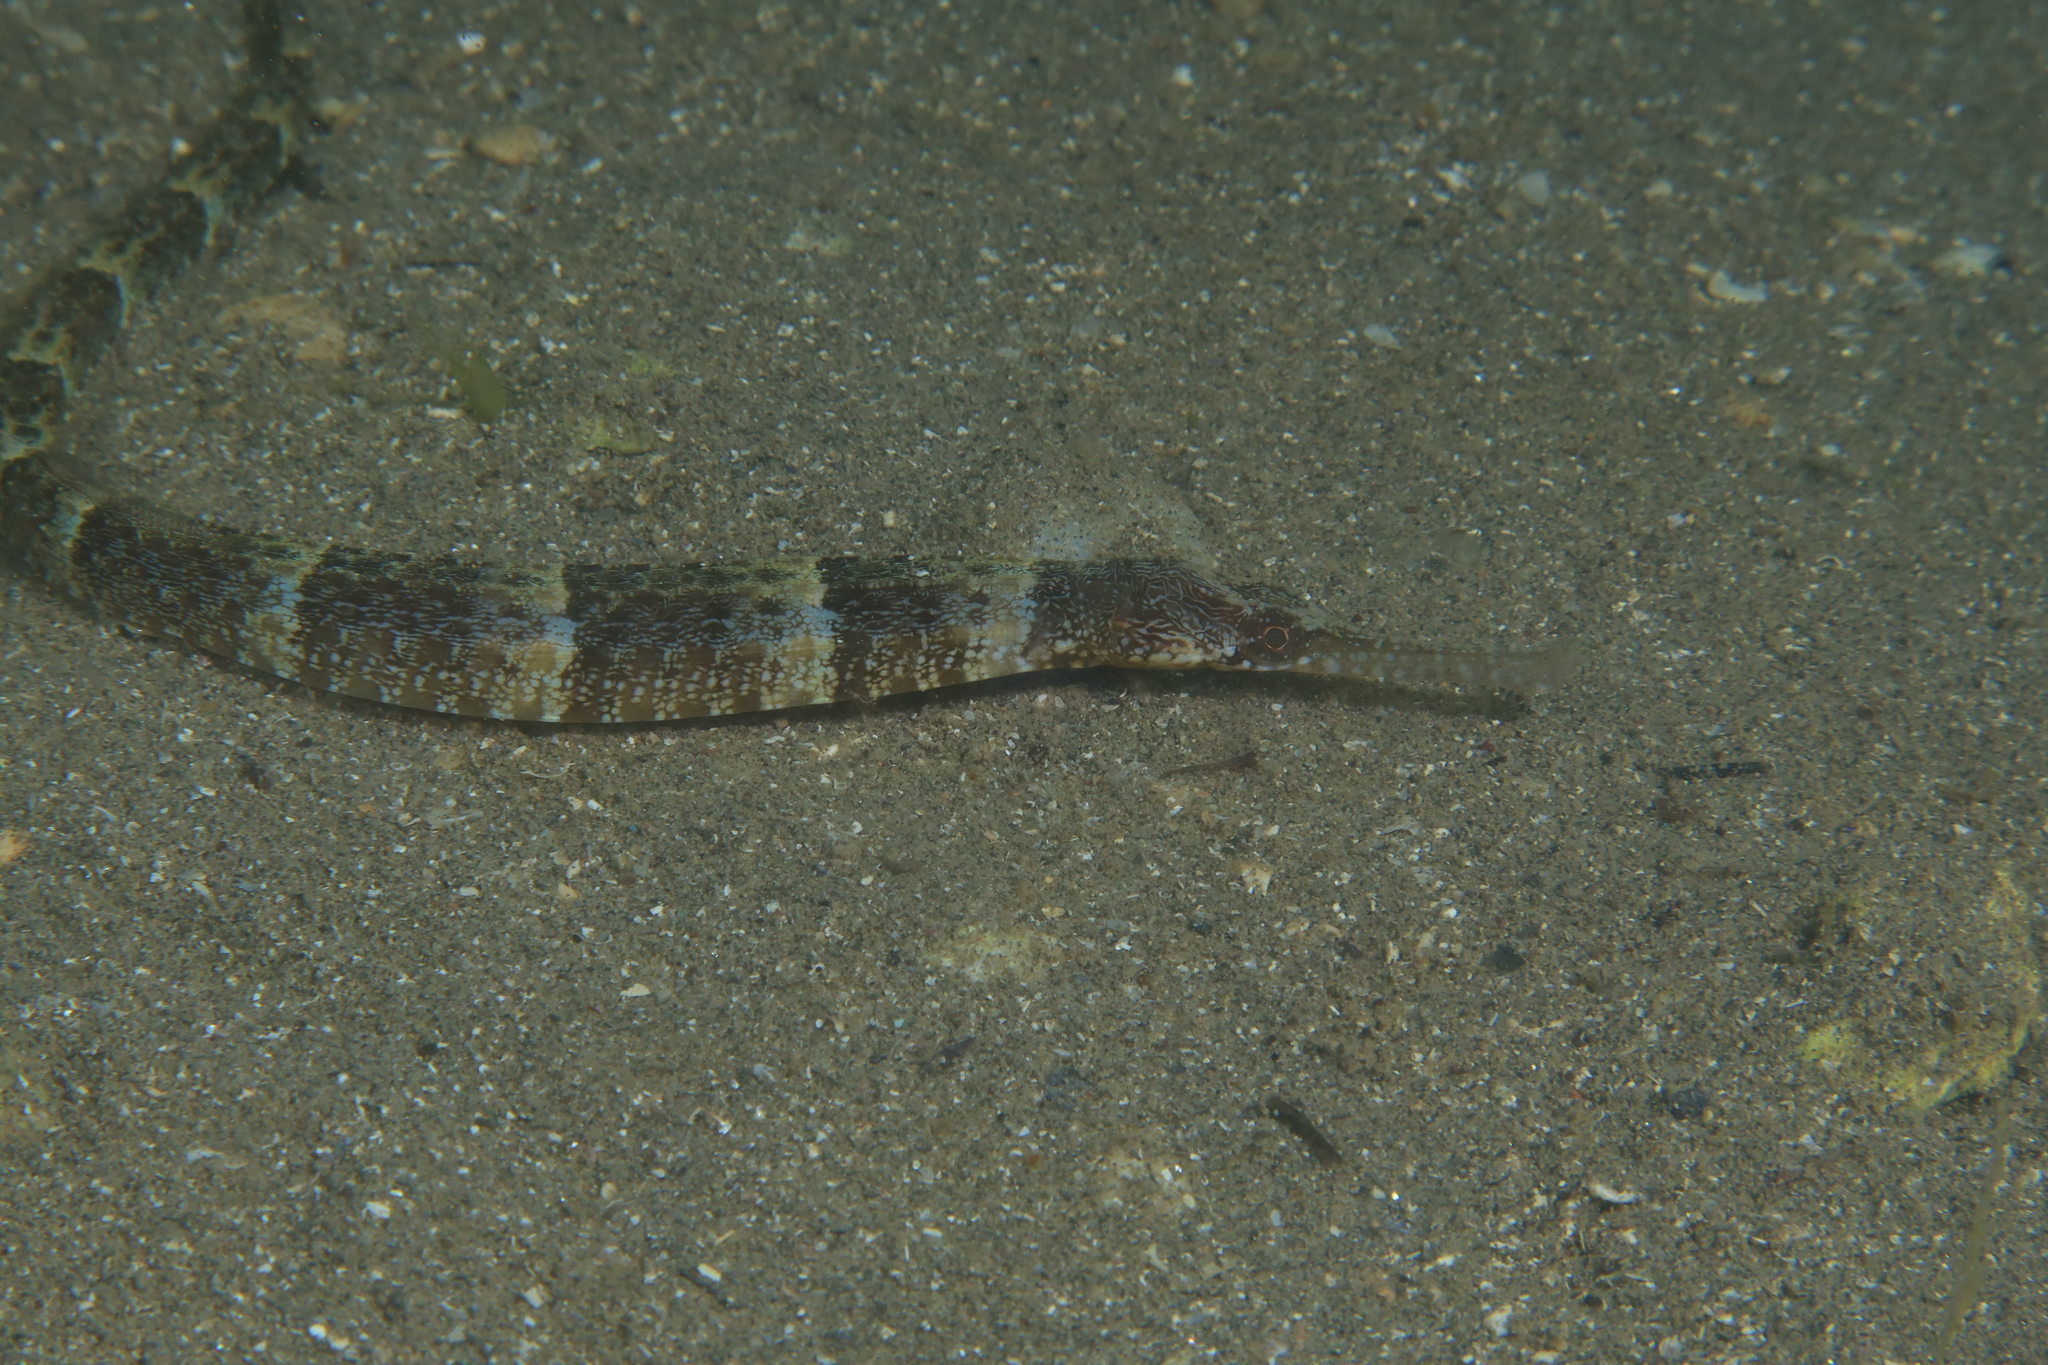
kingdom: Animalia
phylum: Chordata
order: Syngnathiformes
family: Syngnathidae
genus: Syngnathus
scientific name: Syngnathus tenuirostris
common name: Narrow-snouted pipefish
